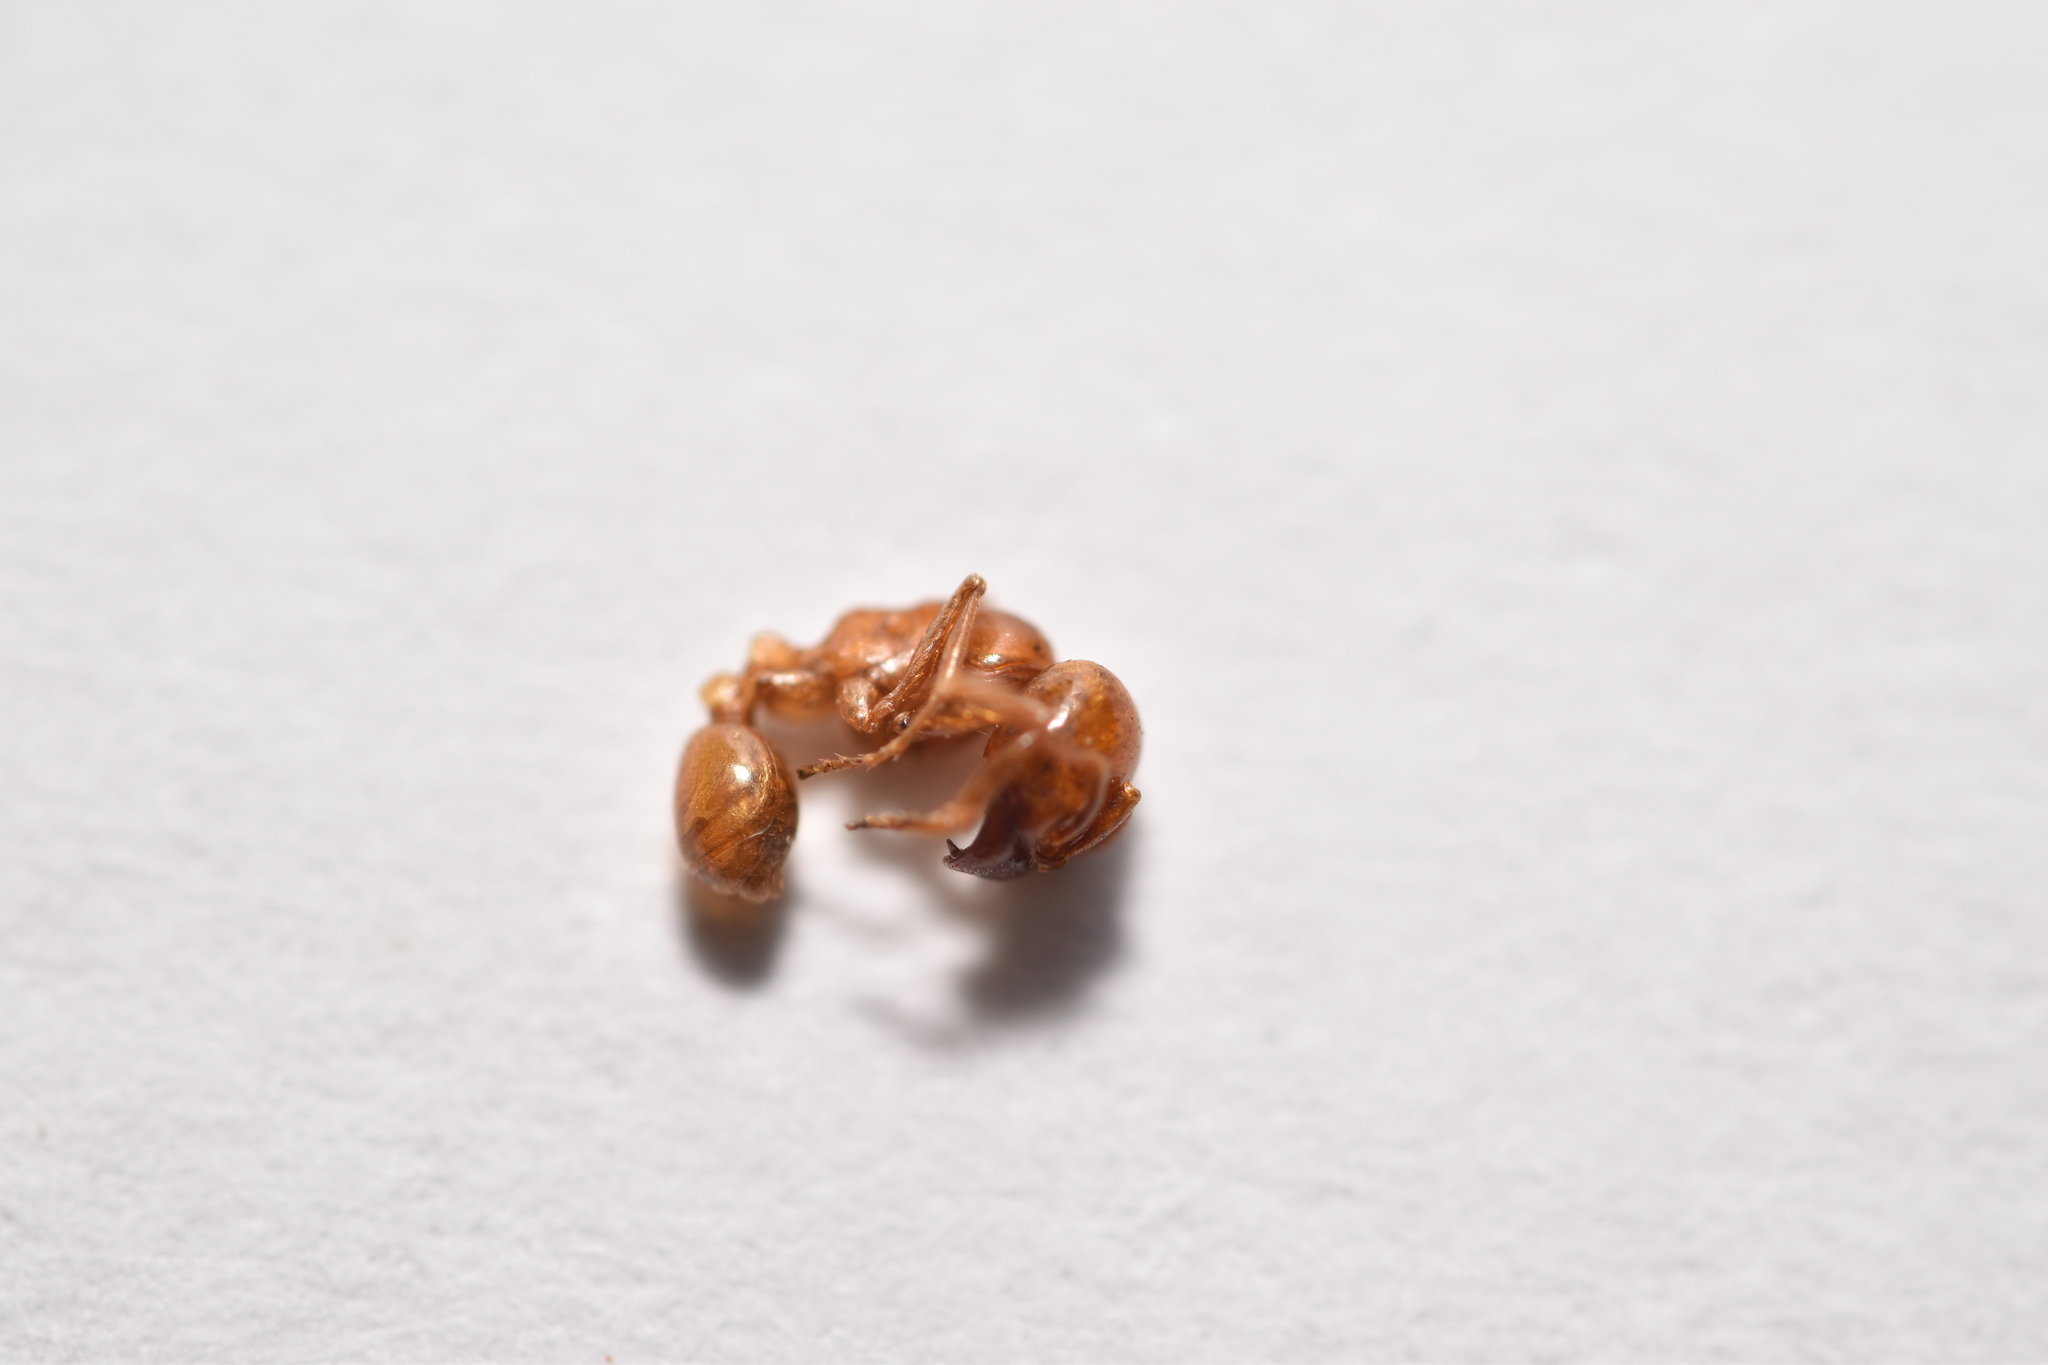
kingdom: Animalia
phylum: Arthropoda
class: Insecta
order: Hymenoptera
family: Formicidae
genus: Labidus
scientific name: Labidus coecus
